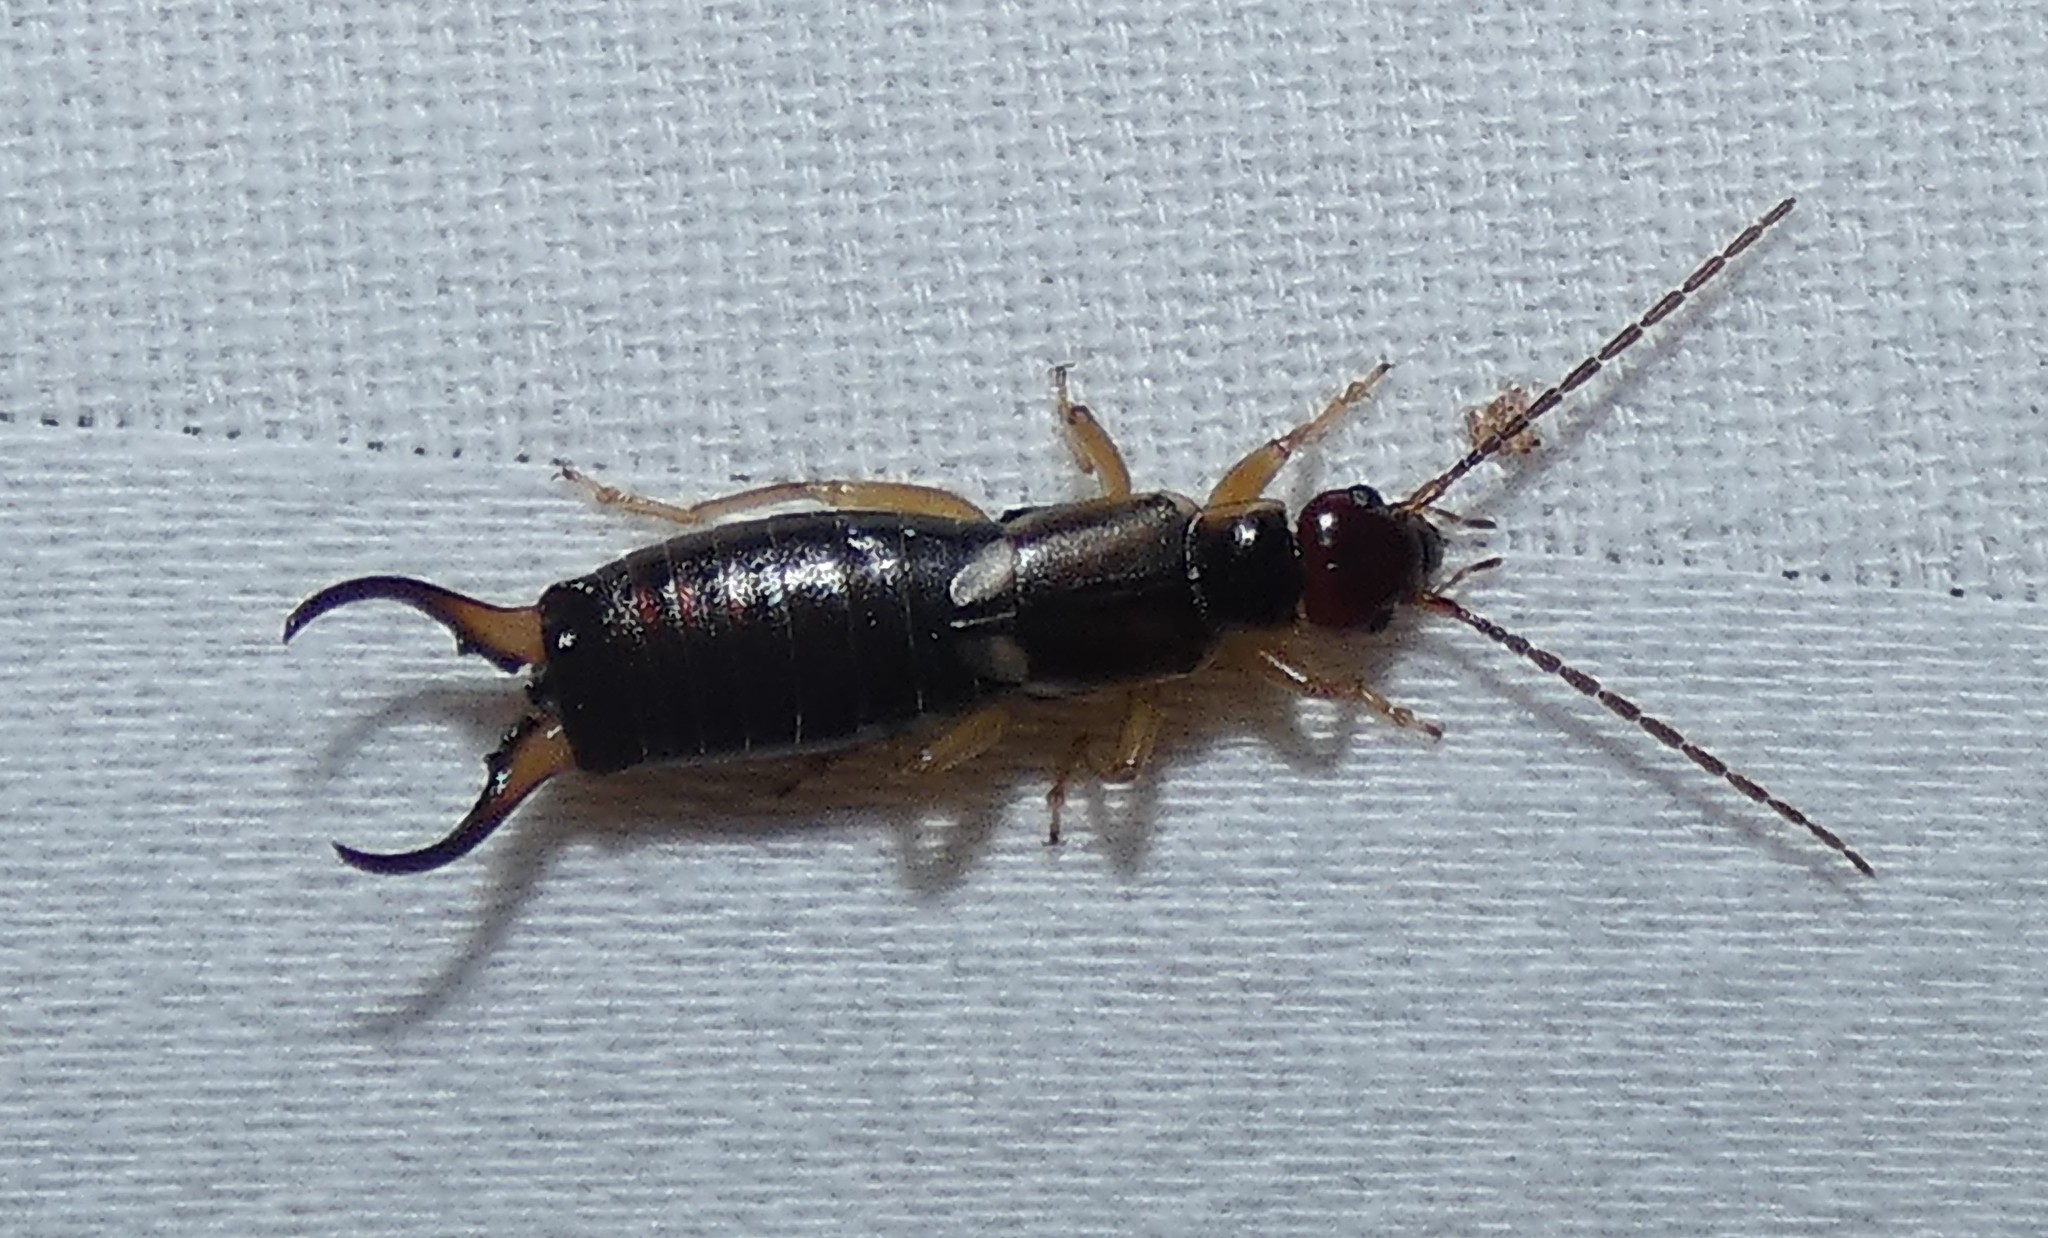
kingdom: Animalia
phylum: Arthropoda
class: Insecta
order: Dermaptera
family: Forficulidae
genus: Forficula
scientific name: Forficula
